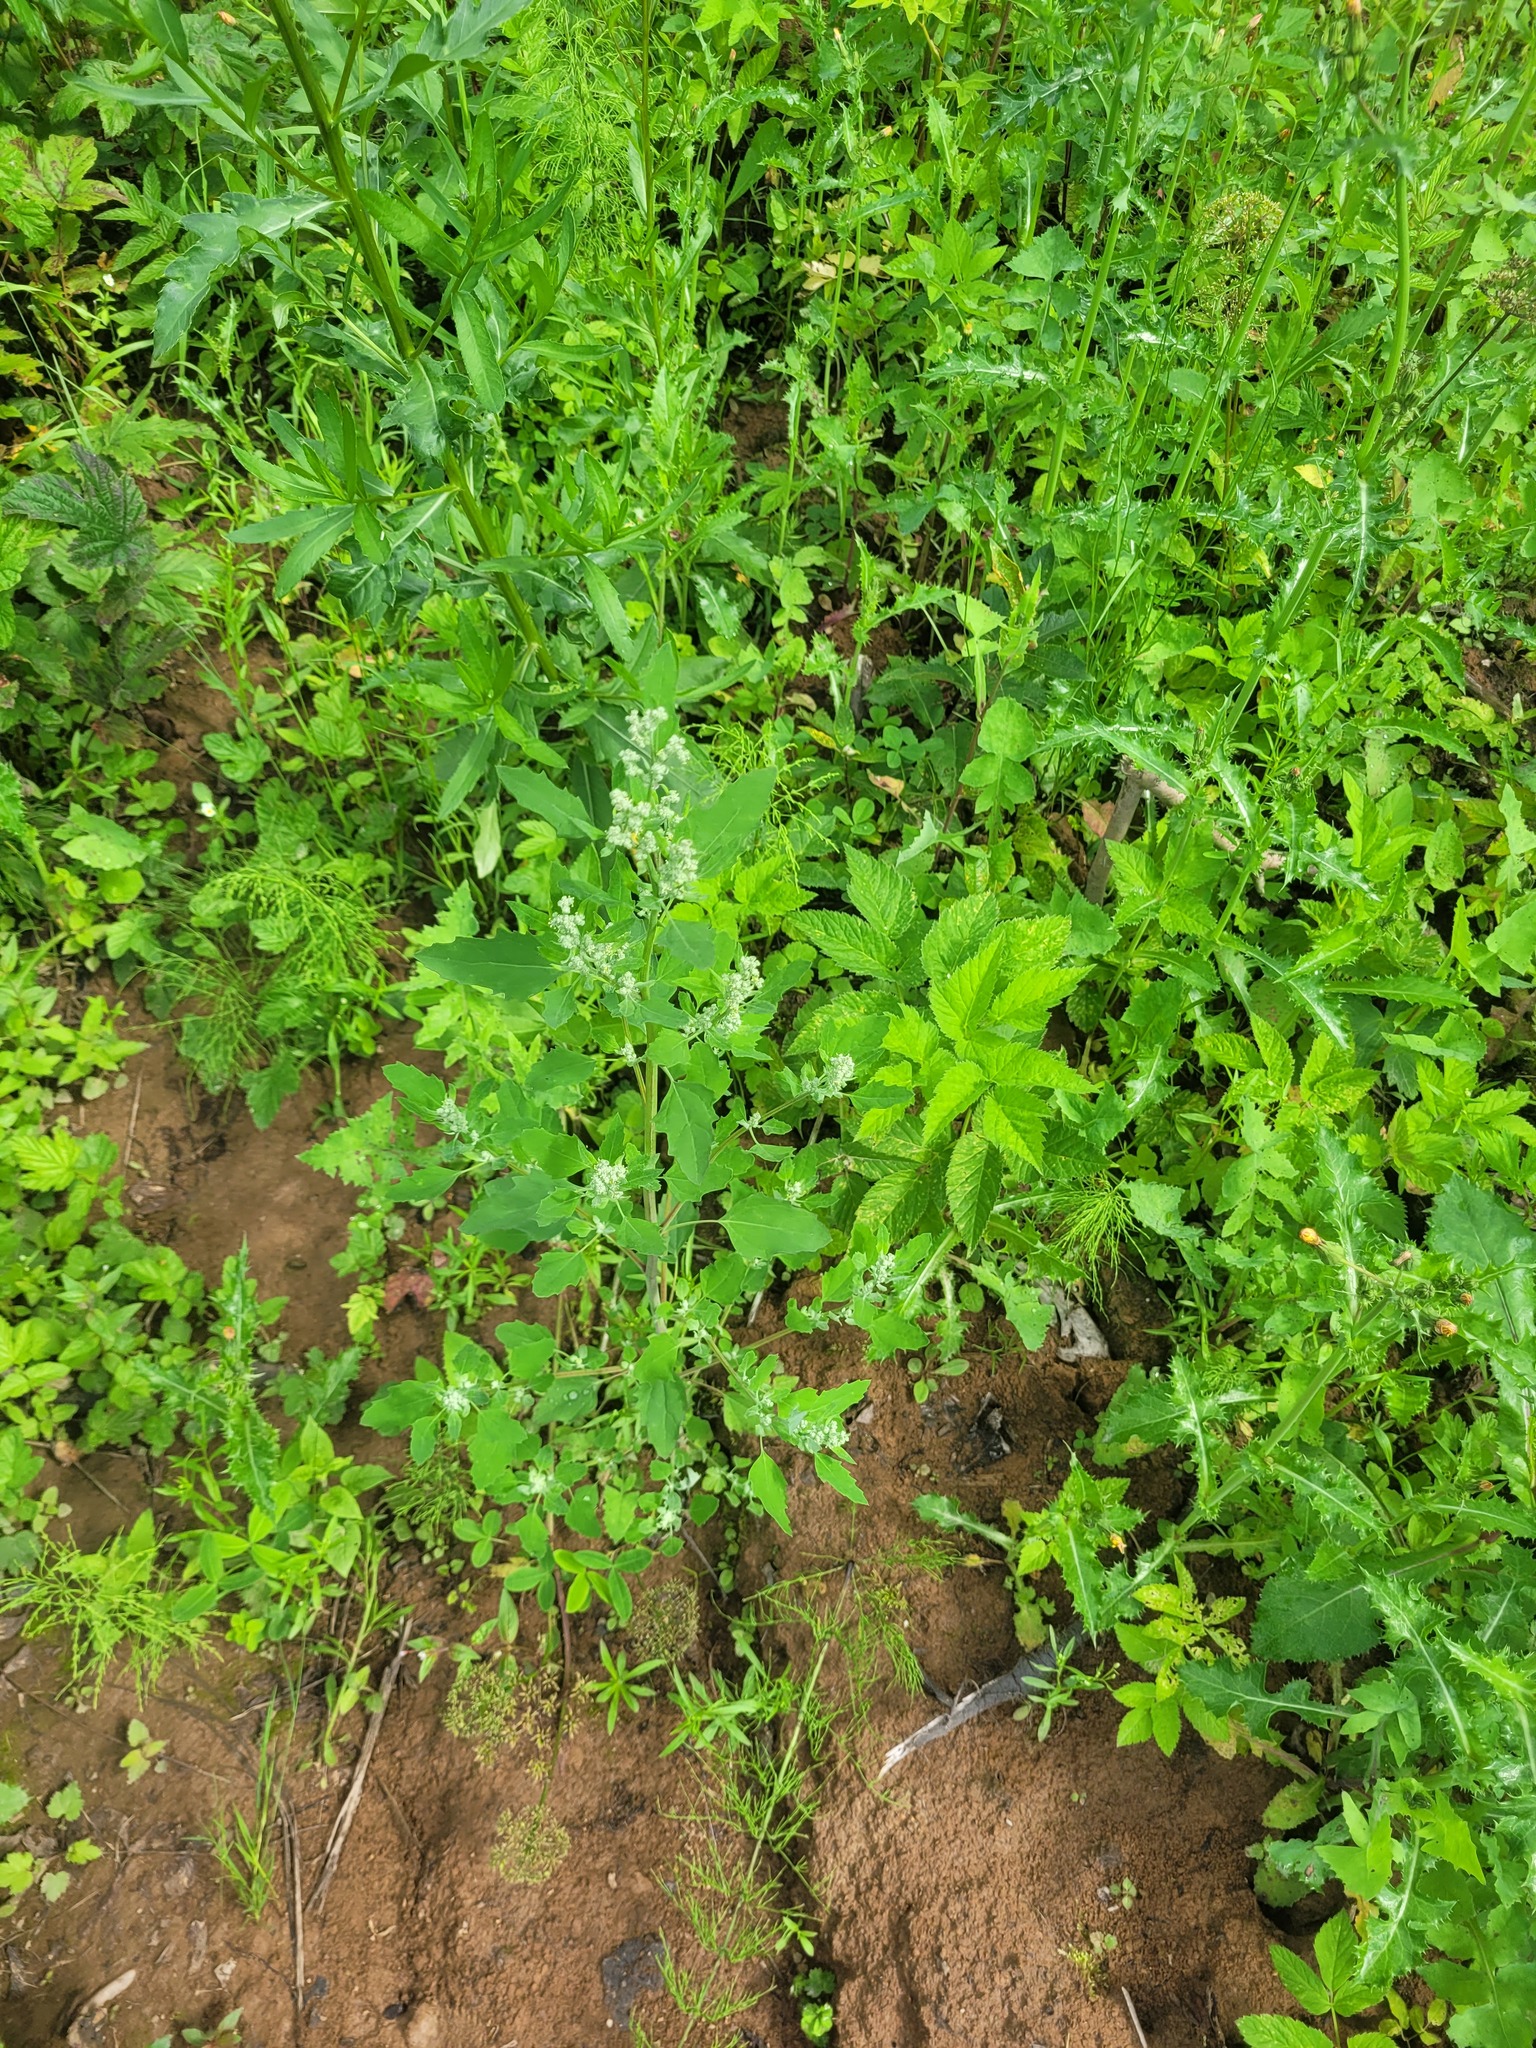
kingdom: Plantae
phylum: Tracheophyta
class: Magnoliopsida
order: Caryophyllales
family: Amaranthaceae
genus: Chenopodium
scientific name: Chenopodium album
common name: Fat-hen
